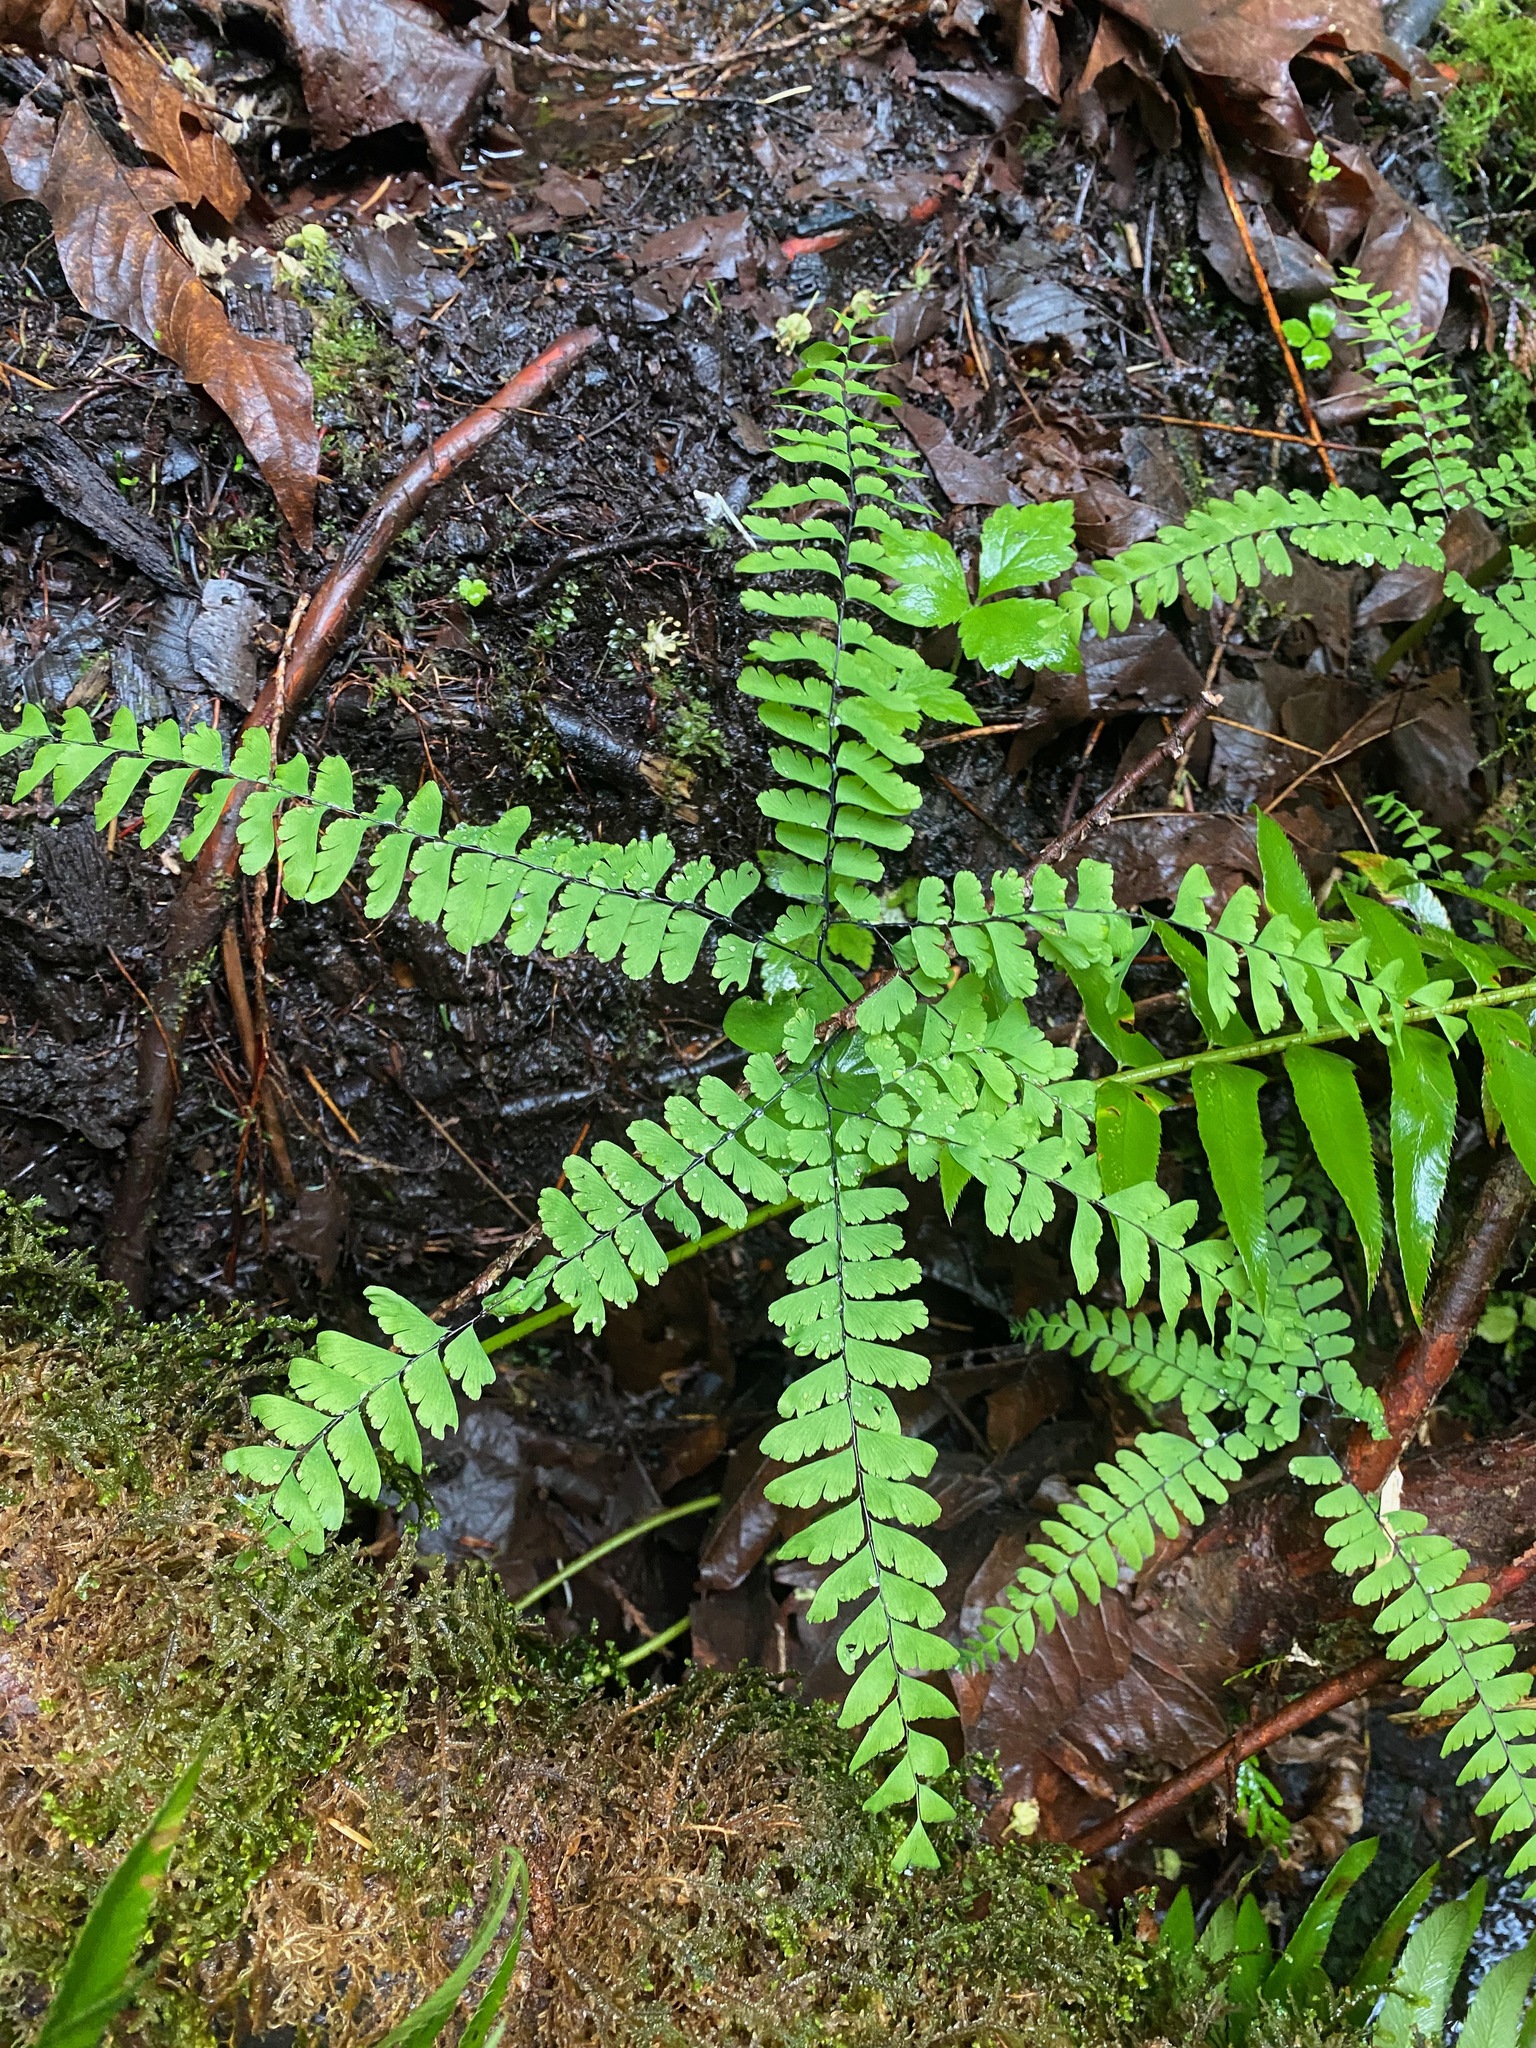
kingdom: Plantae
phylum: Tracheophyta
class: Polypodiopsida
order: Polypodiales
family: Pteridaceae
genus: Adiantum
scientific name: Adiantum aleuticum
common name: Aleutian maidenhair fern
